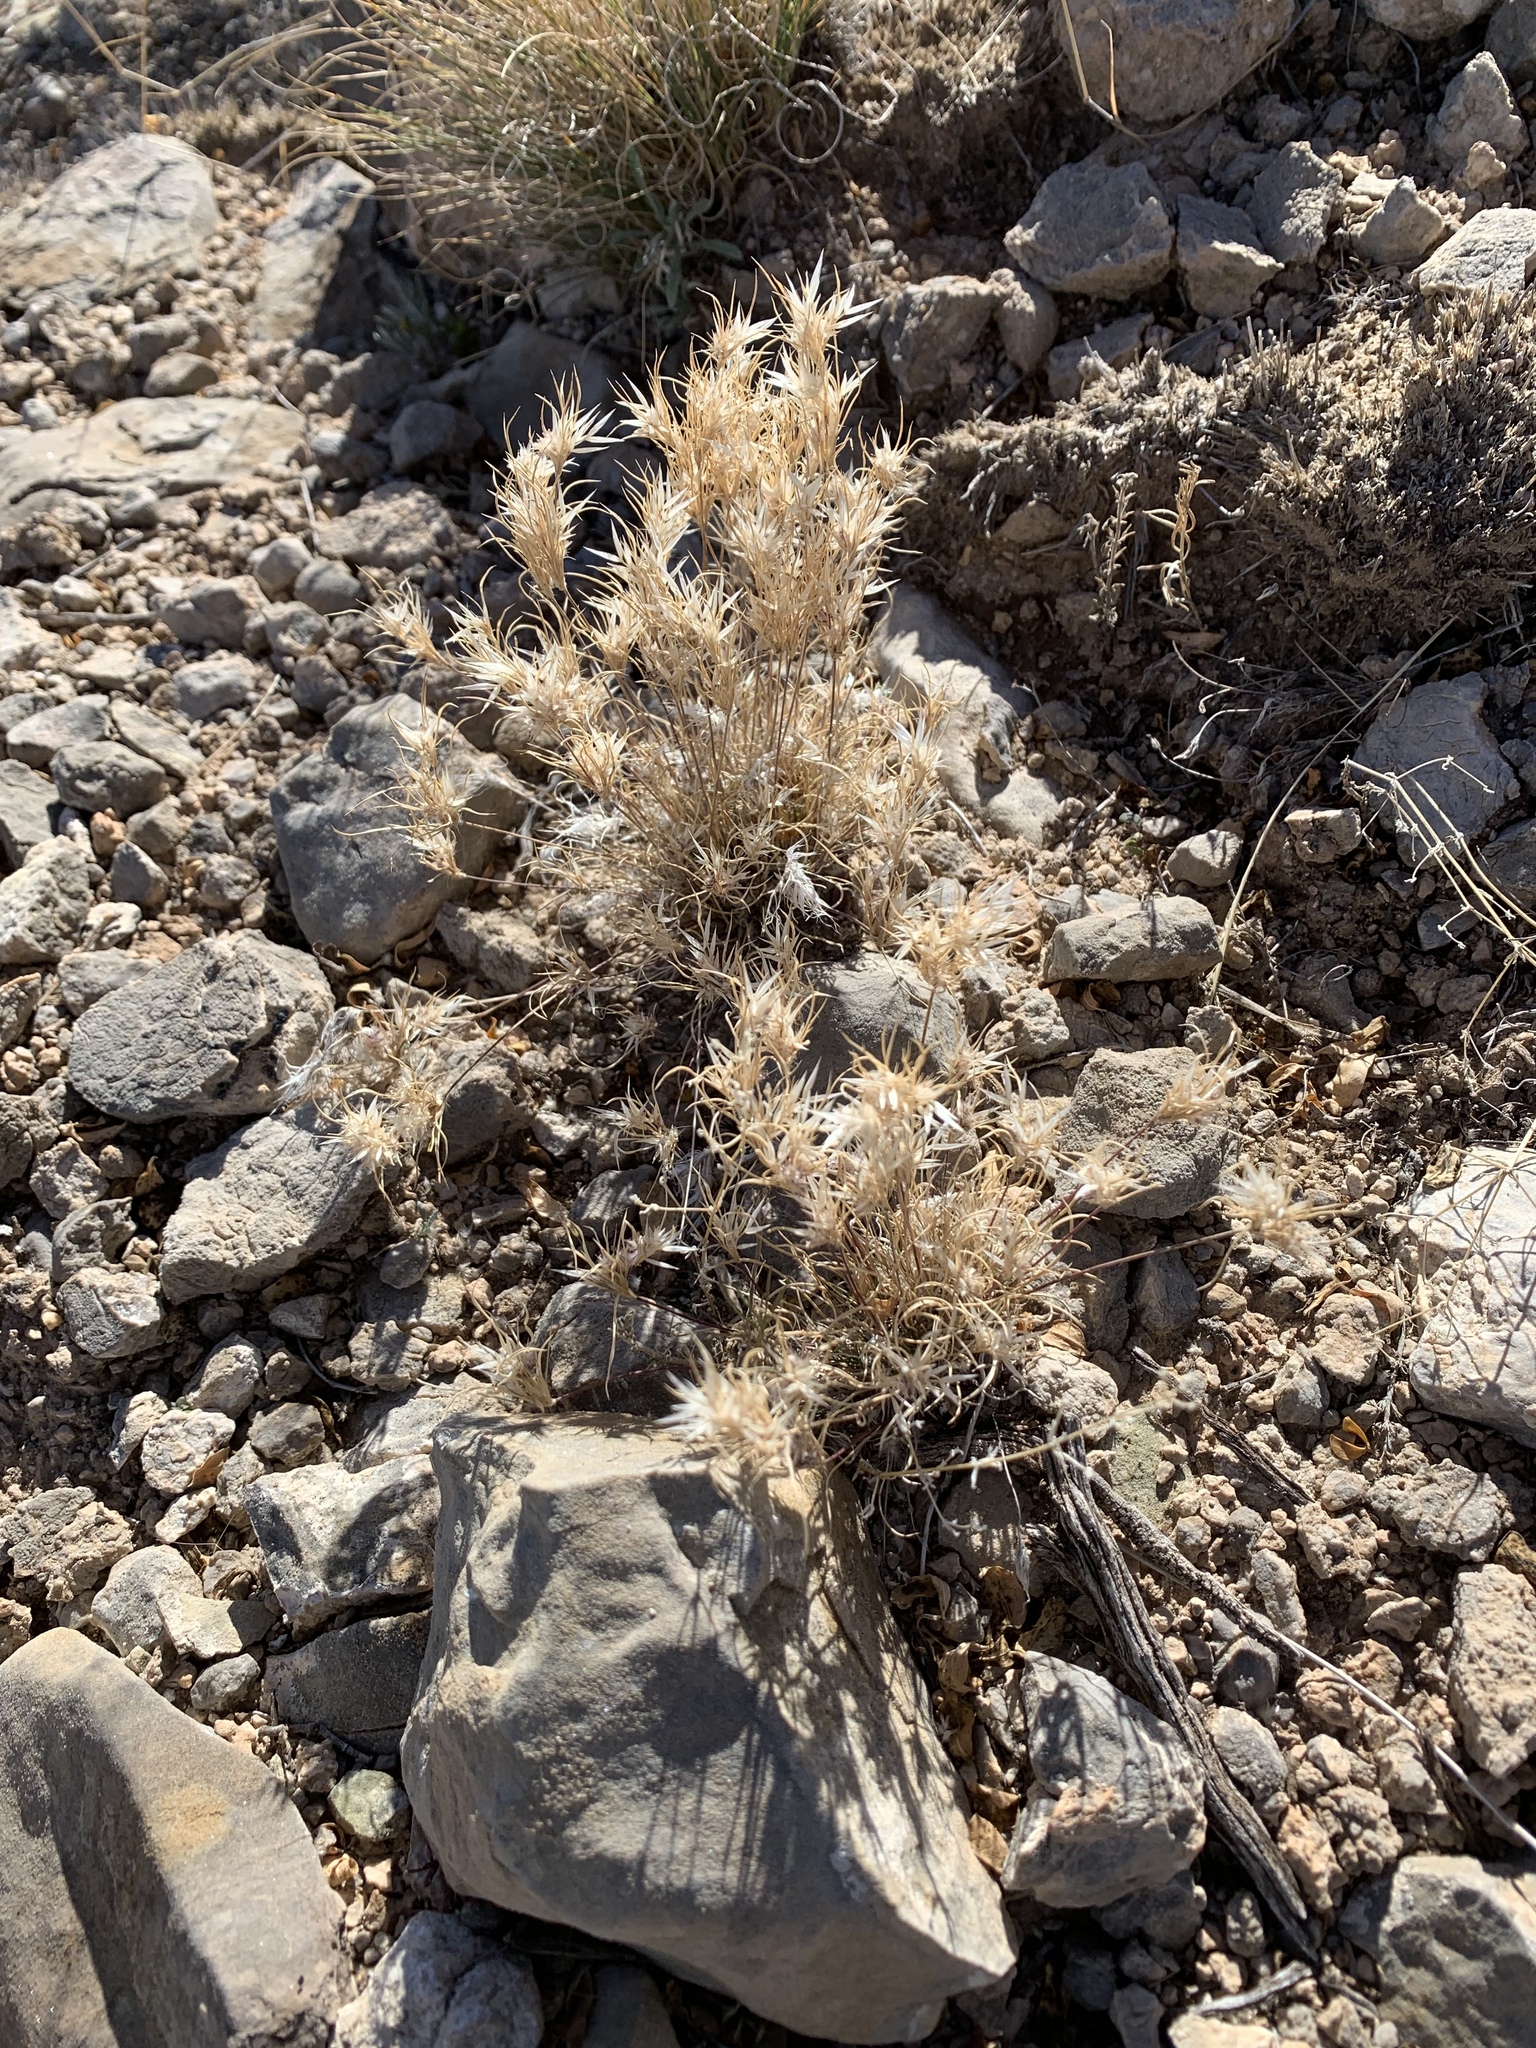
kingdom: Plantae
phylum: Tracheophyta
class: Liliopsida
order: Poales
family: Poaceae
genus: Dasyochloa
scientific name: Dasyochloa pulchella
